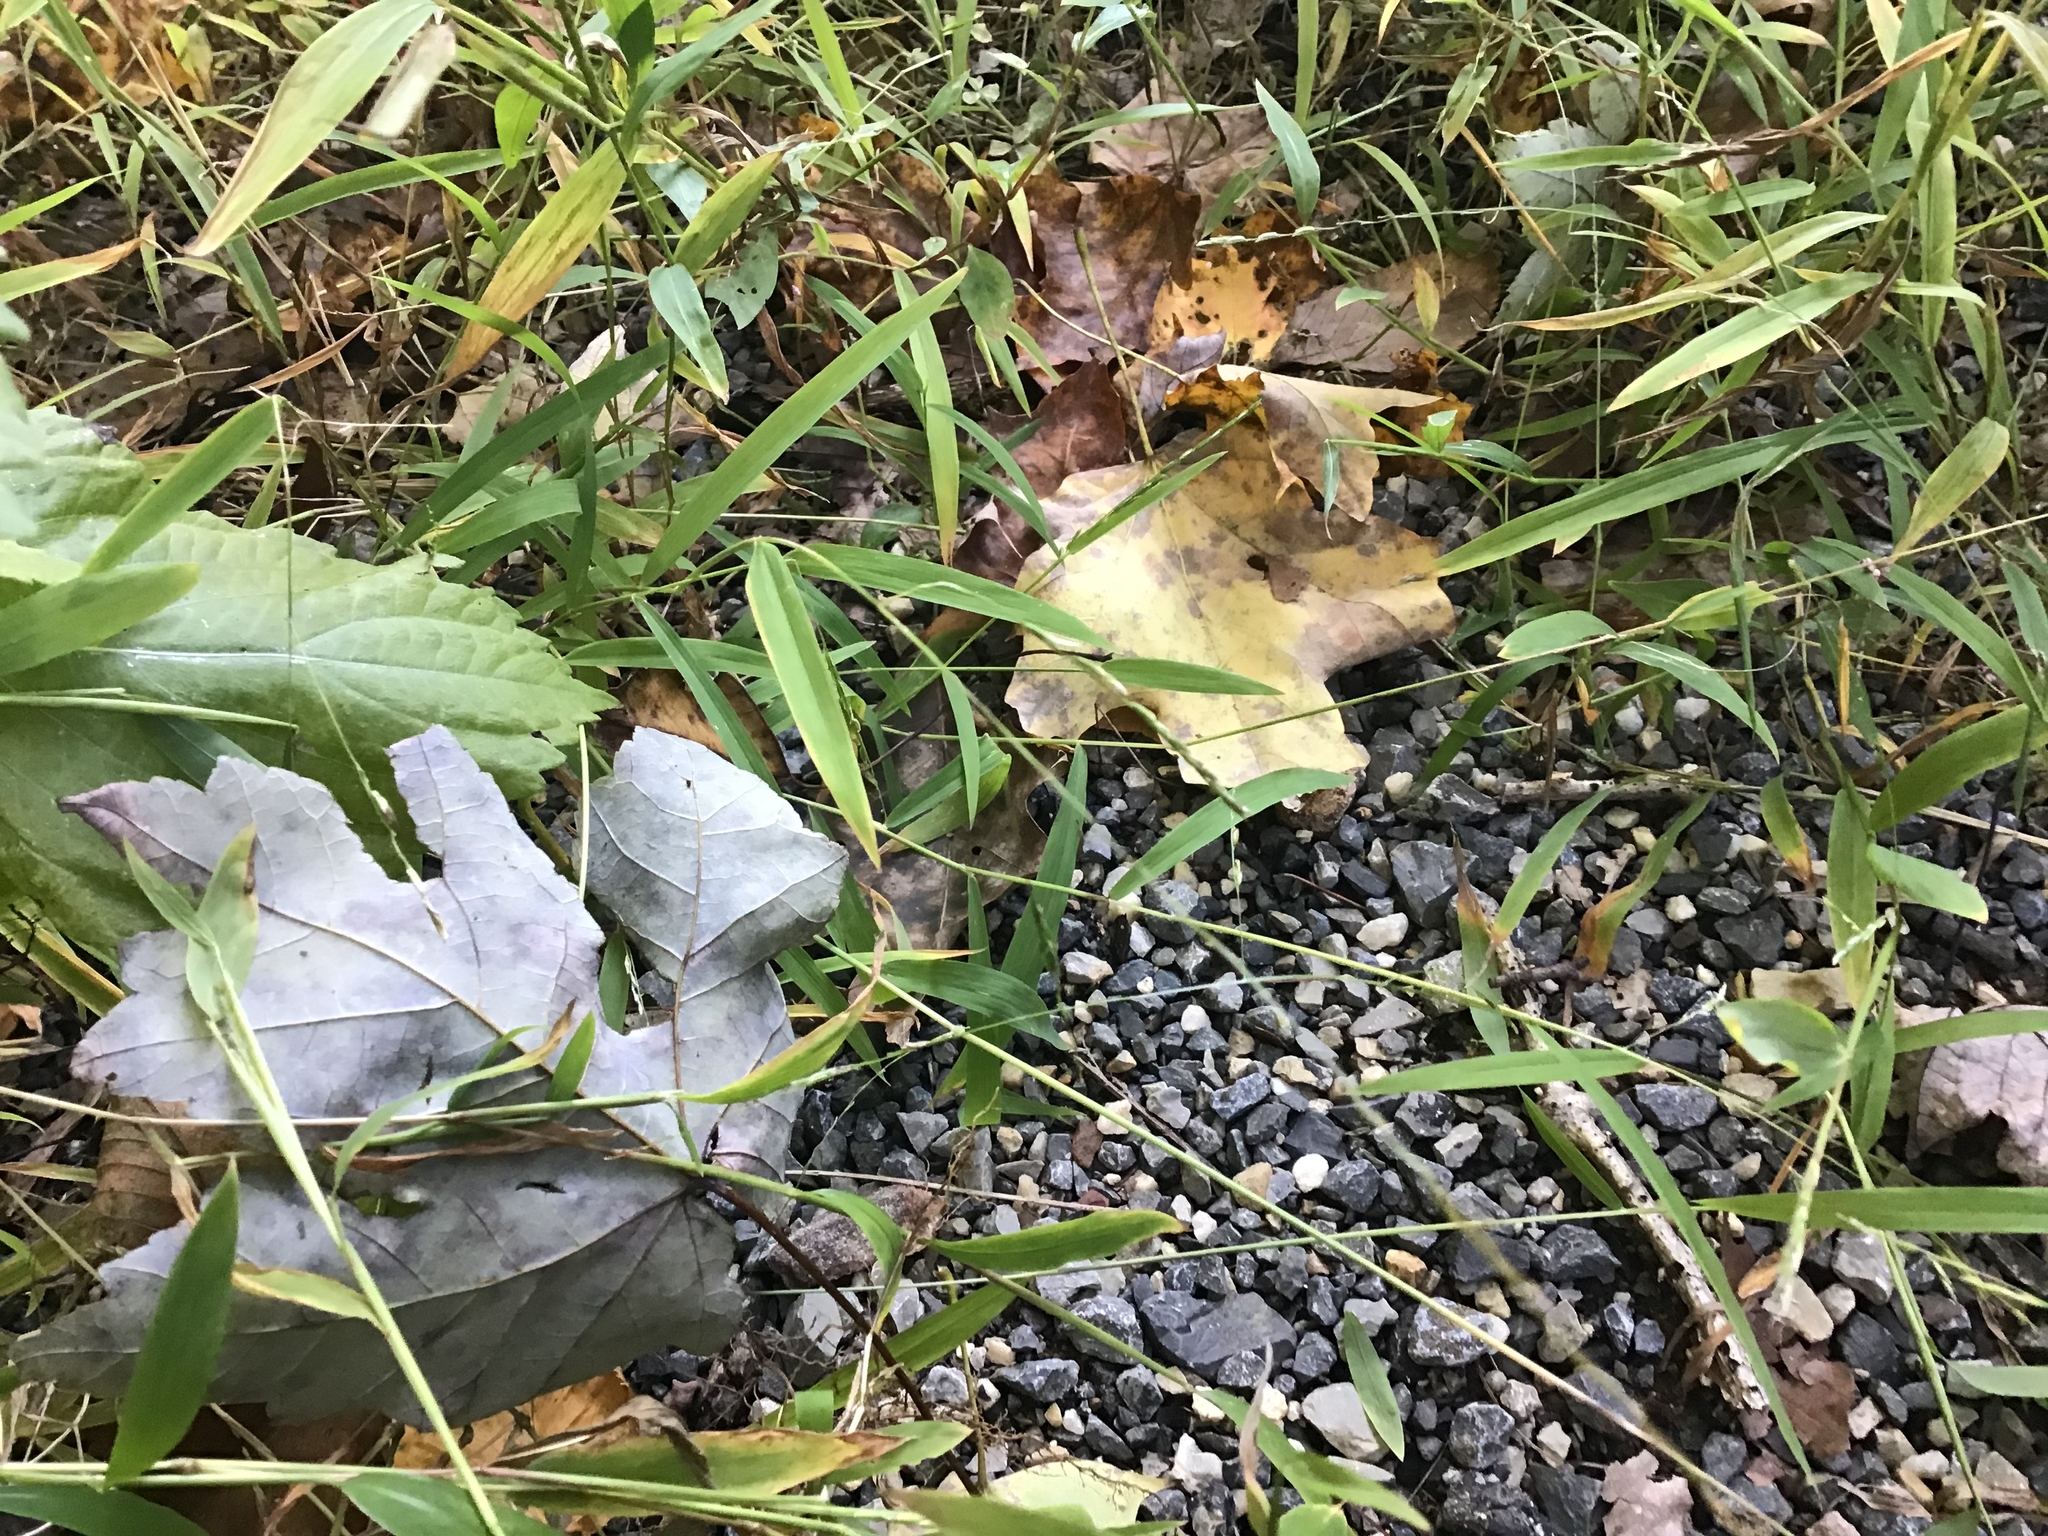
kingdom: Plantae
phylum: Tracheophyta
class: Liliopsida
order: Poales
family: Poaceae
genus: Microstegium
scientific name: Microstegium vimineum
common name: Japanese stiltgrass
